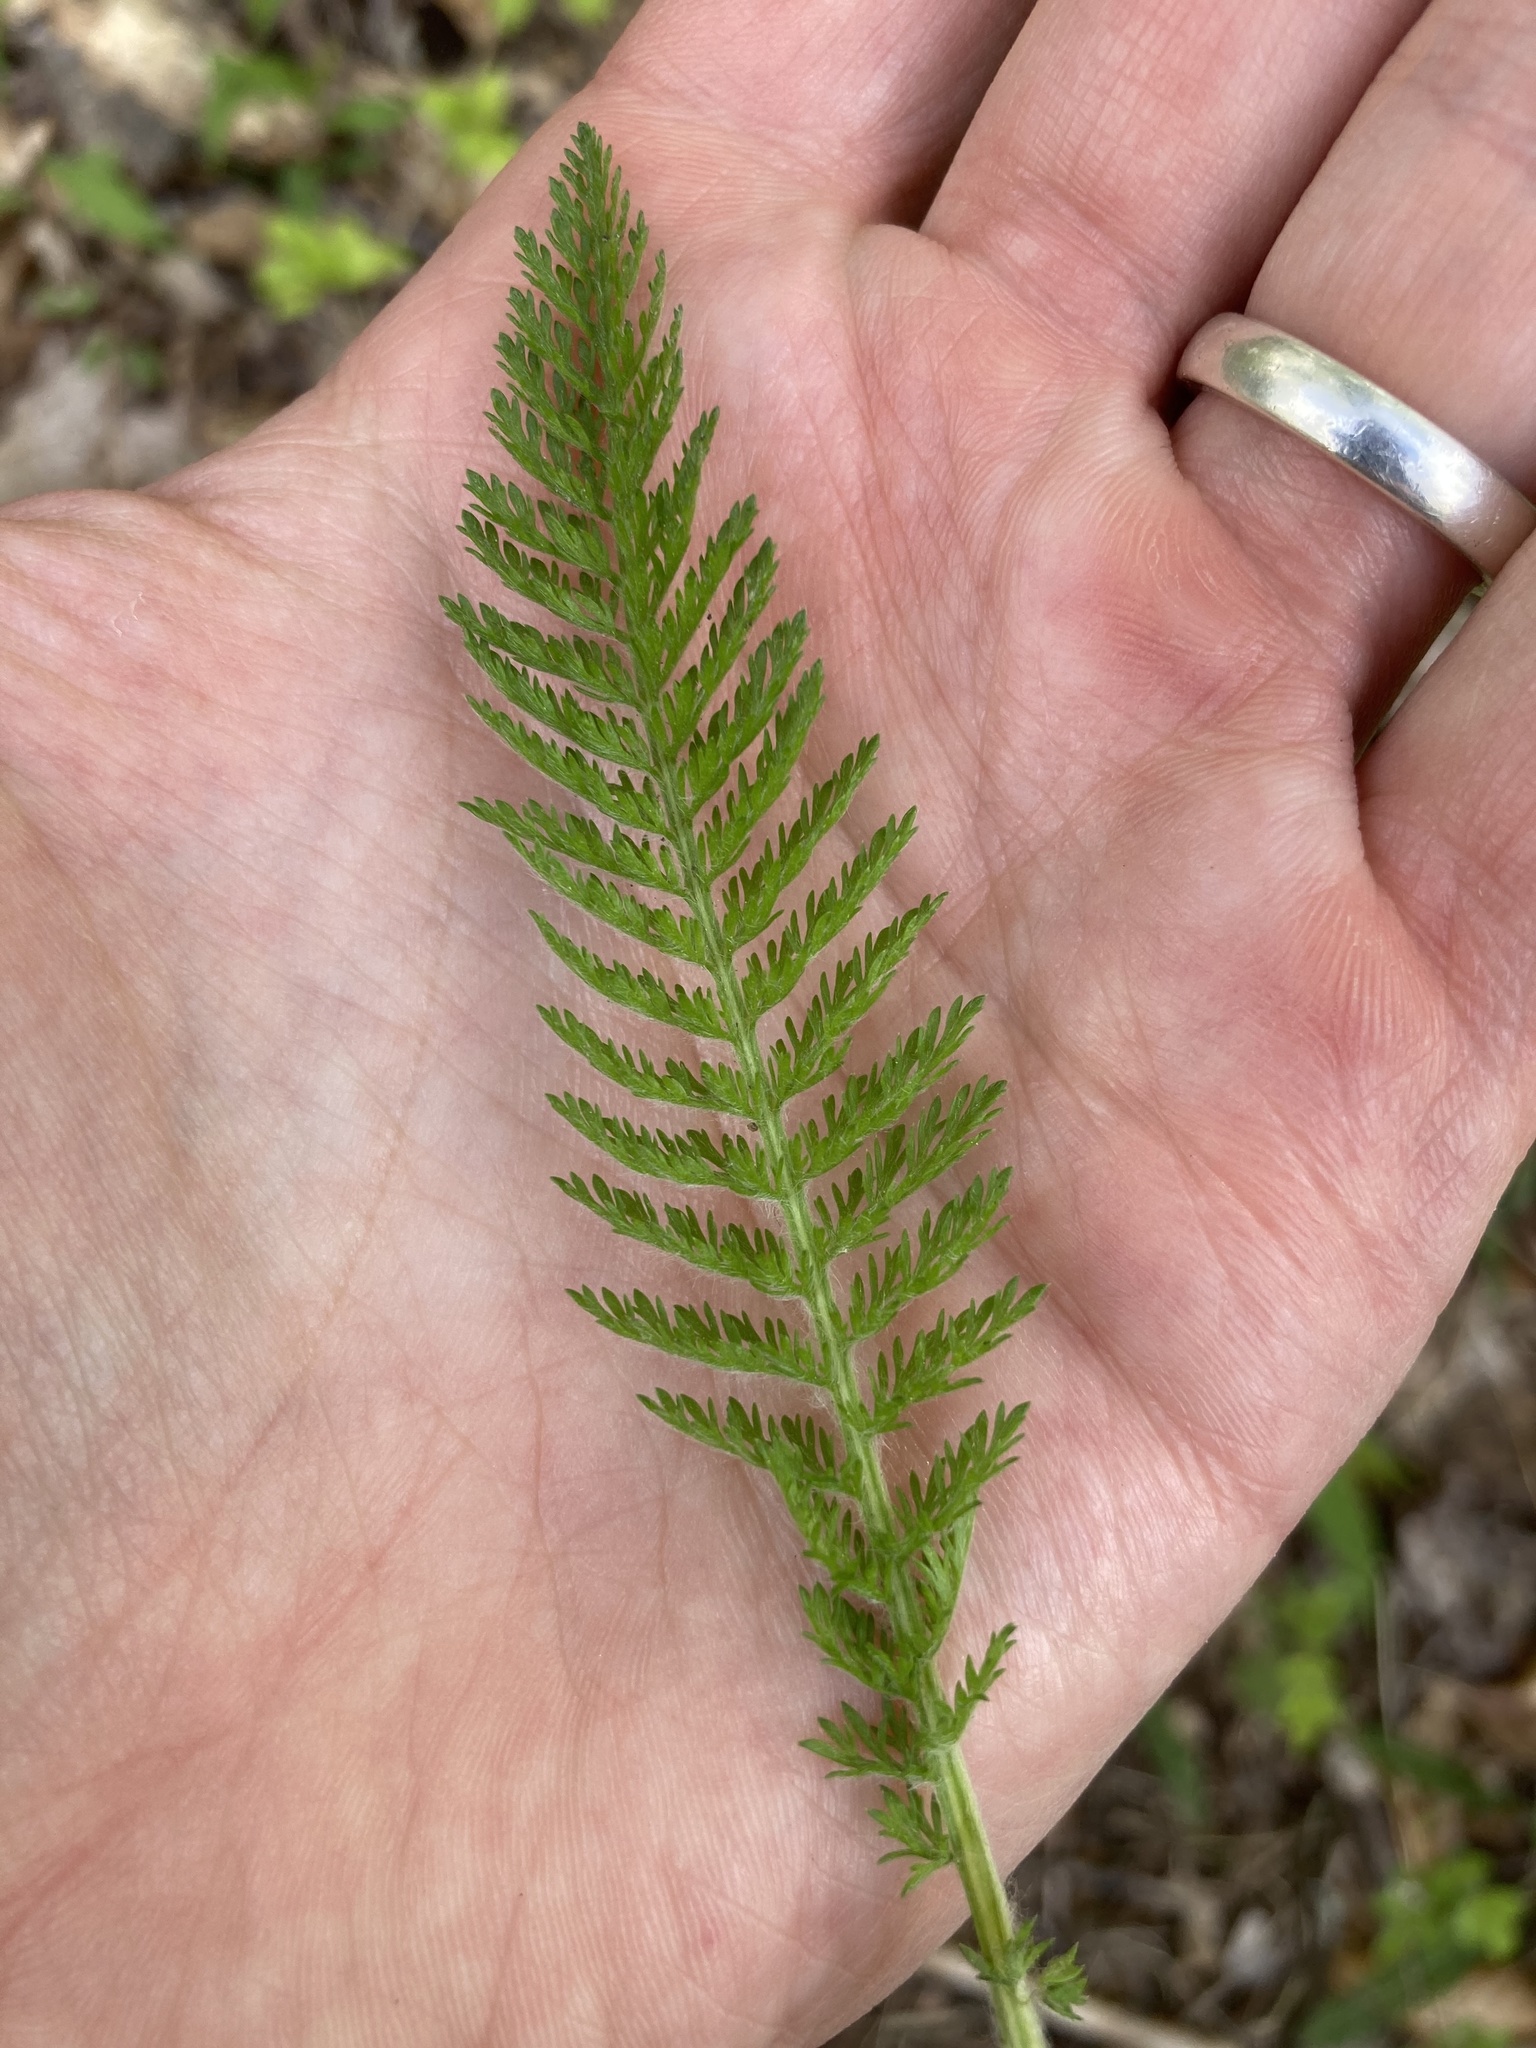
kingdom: Plantae
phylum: Tracheophyta
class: Magnoliopsida
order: Asterales
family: Asteraceae
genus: Achillea
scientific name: Achillea millefolium
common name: Yarrow
